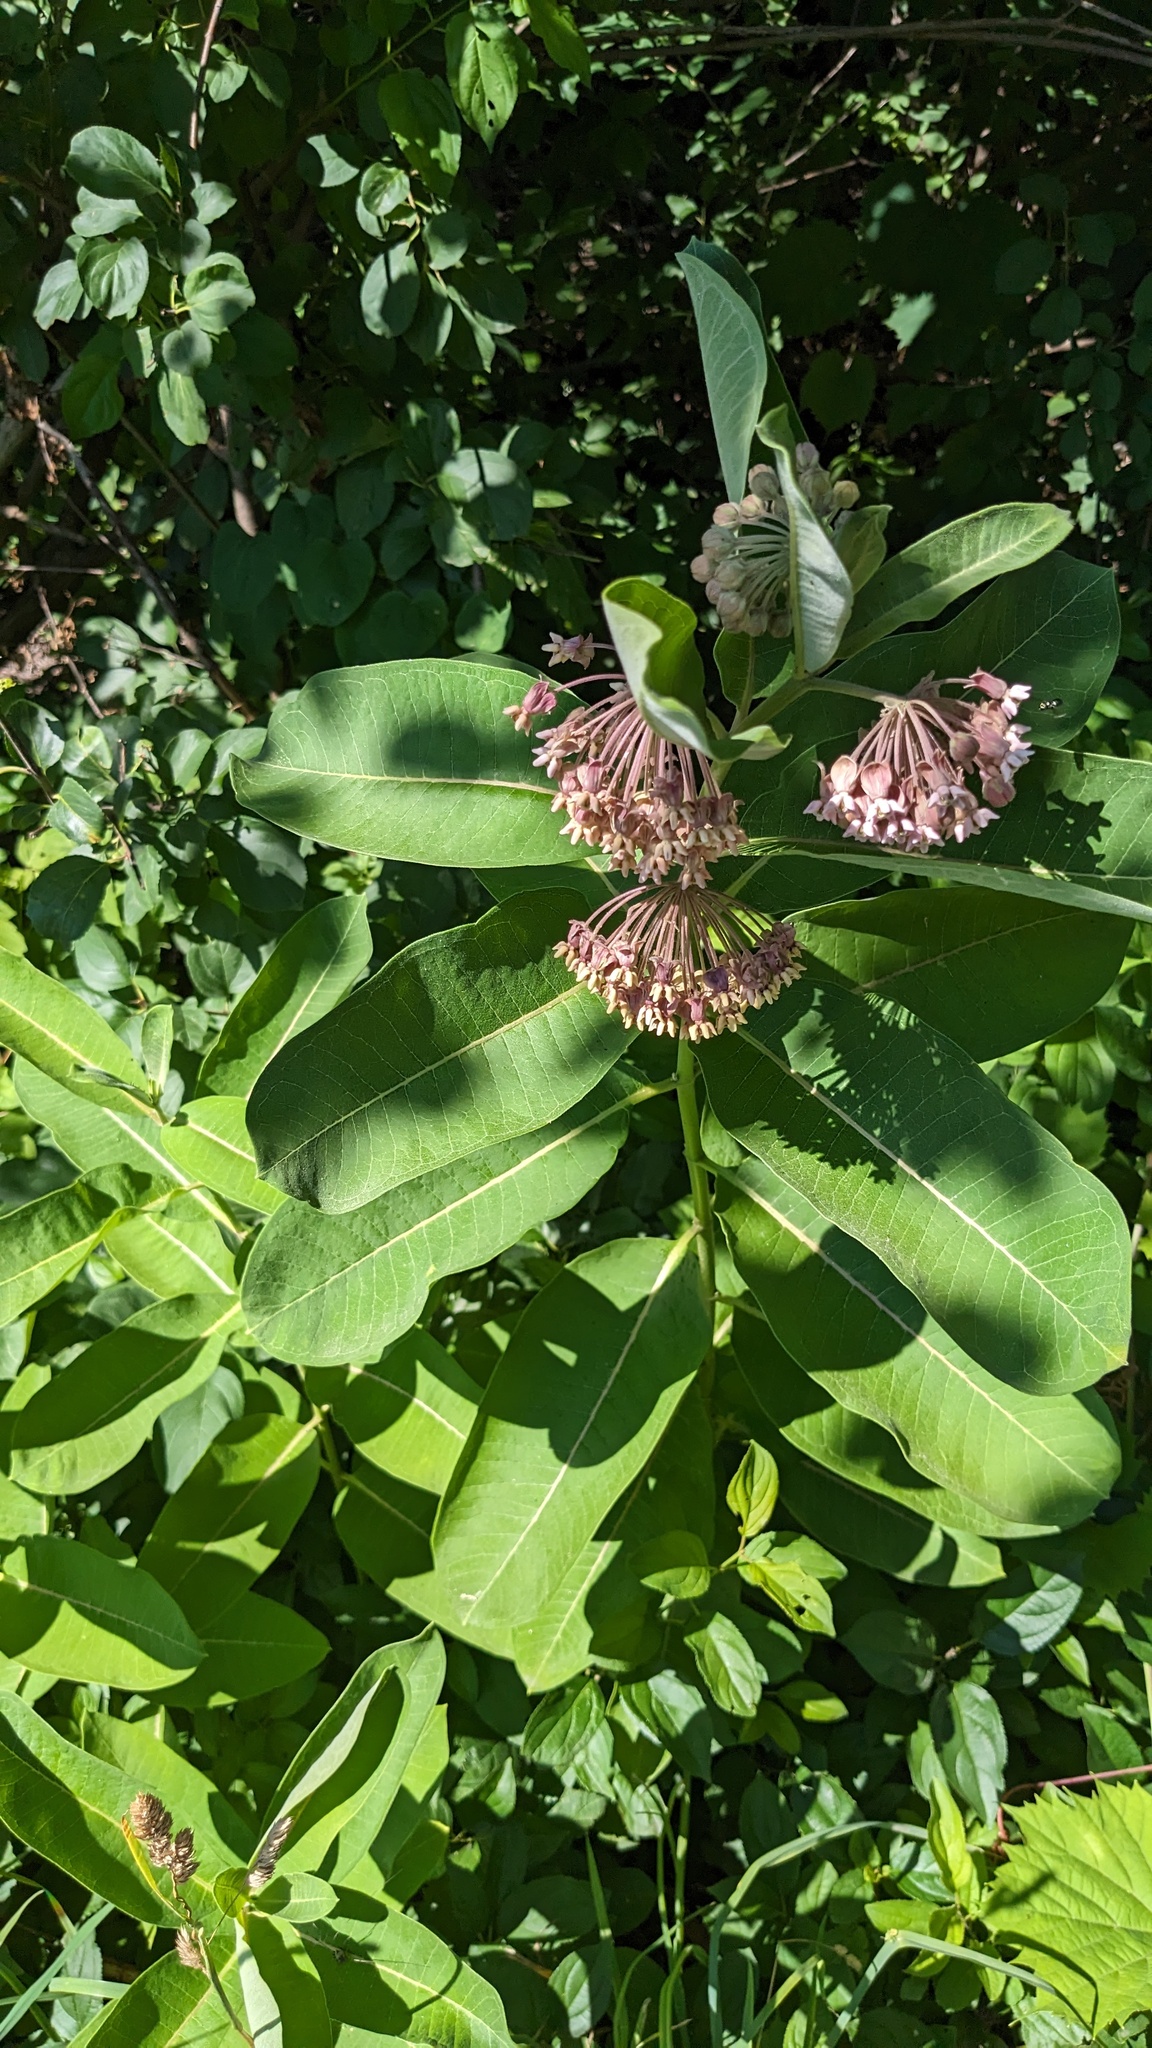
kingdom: Plantae
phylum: Tracheophyta
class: Magnoliopsida
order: Gentianales
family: Apocynaceae
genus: Asclepias
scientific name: Asclepias syriaca
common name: Common milkweed
